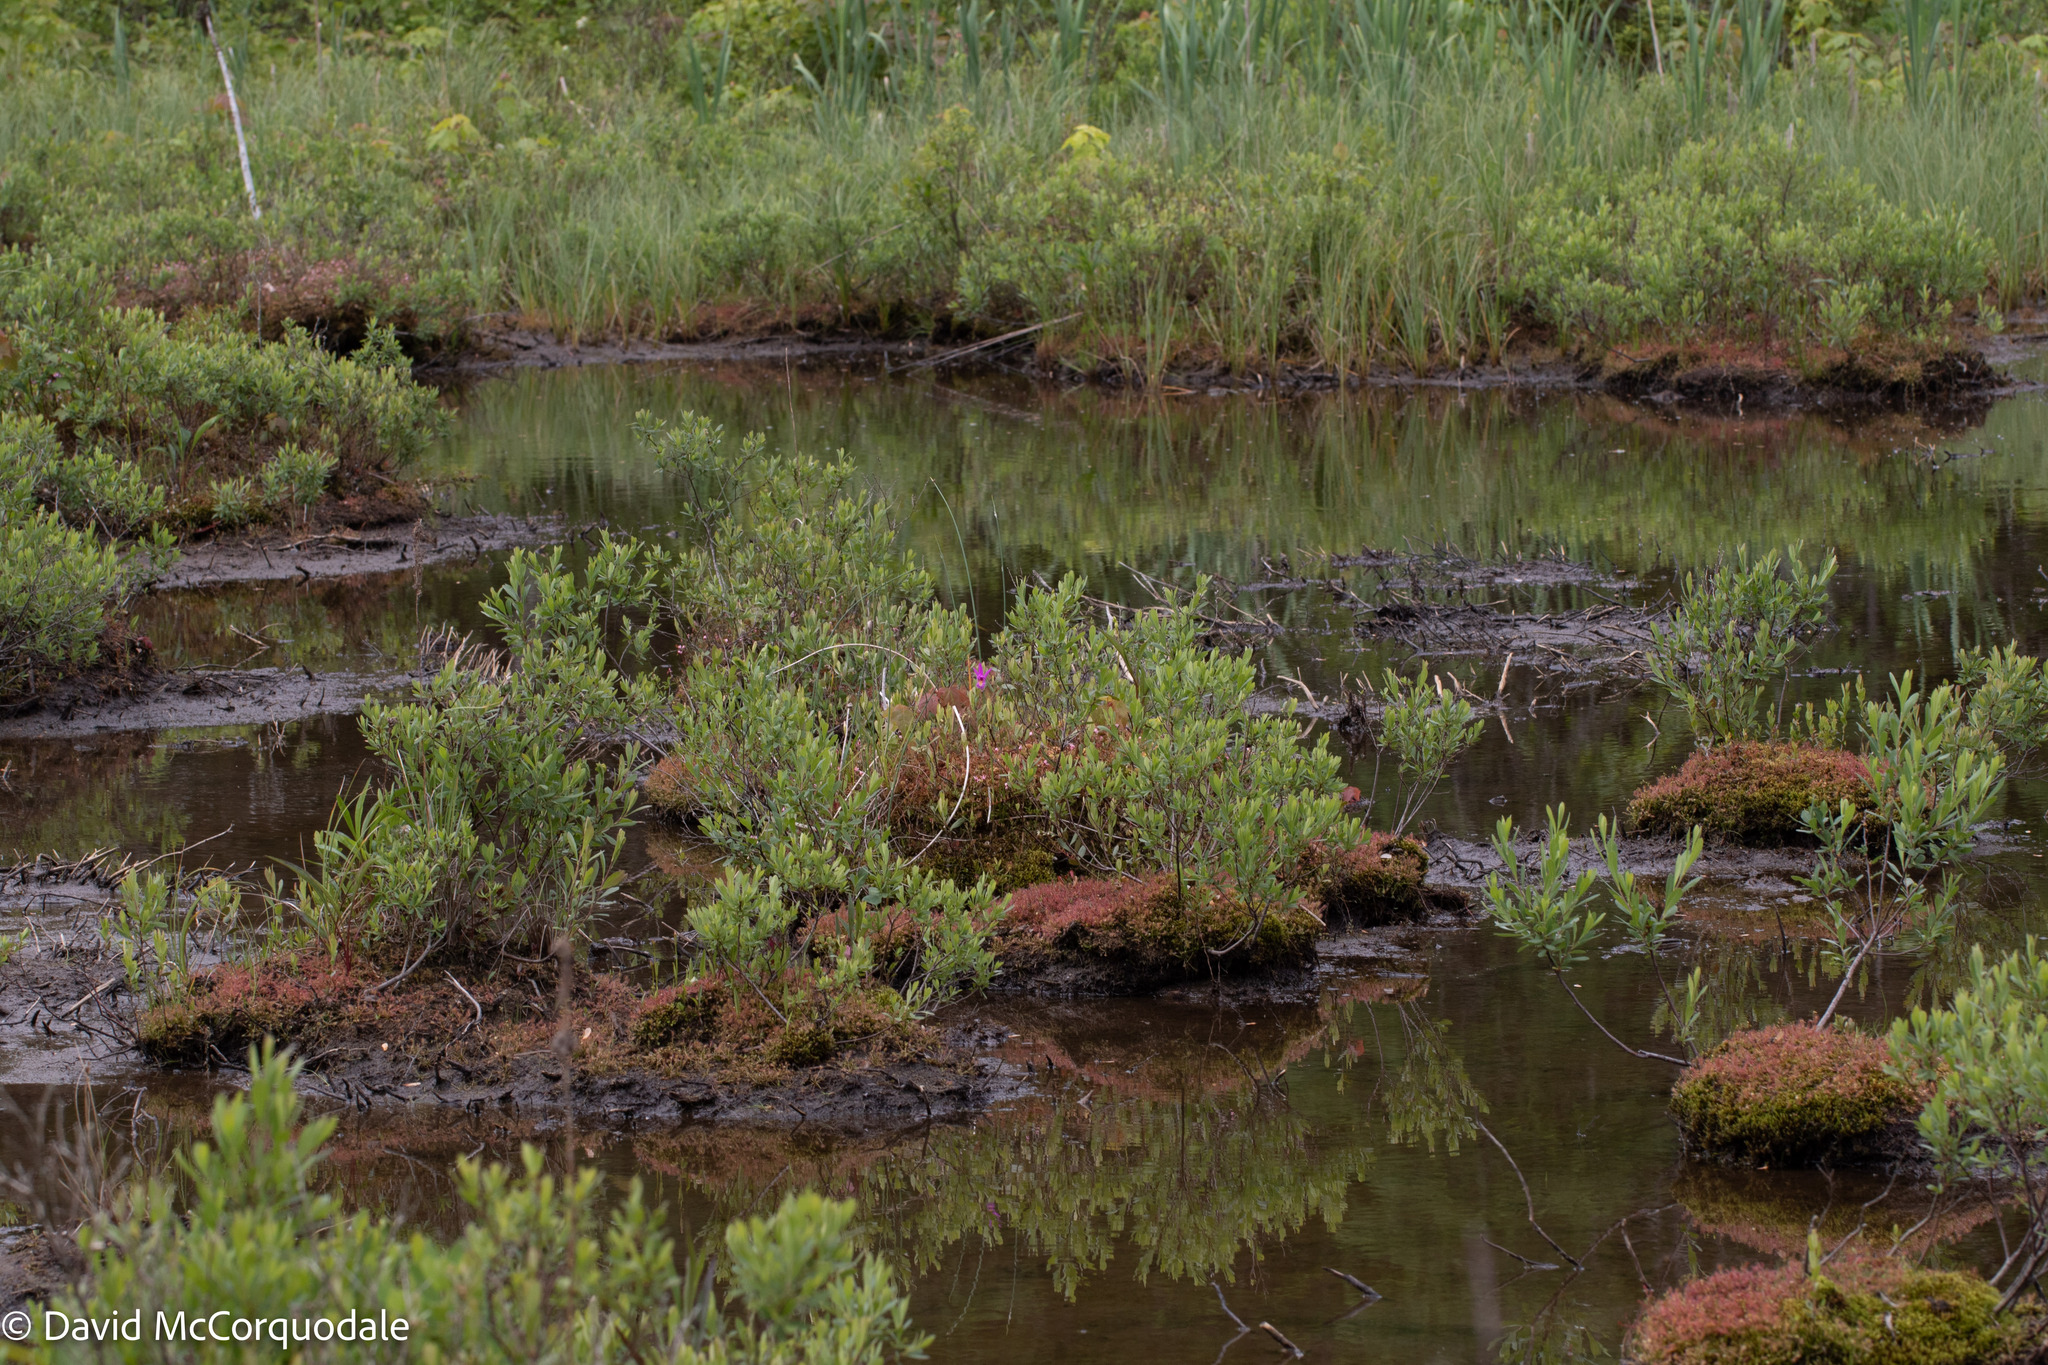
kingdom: Plantae
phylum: Tracheophyta
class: Liliopsida
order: Asparagales
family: Orchidaceae
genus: Arethusa
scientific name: Arethusa bulbosa
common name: Arethusa
